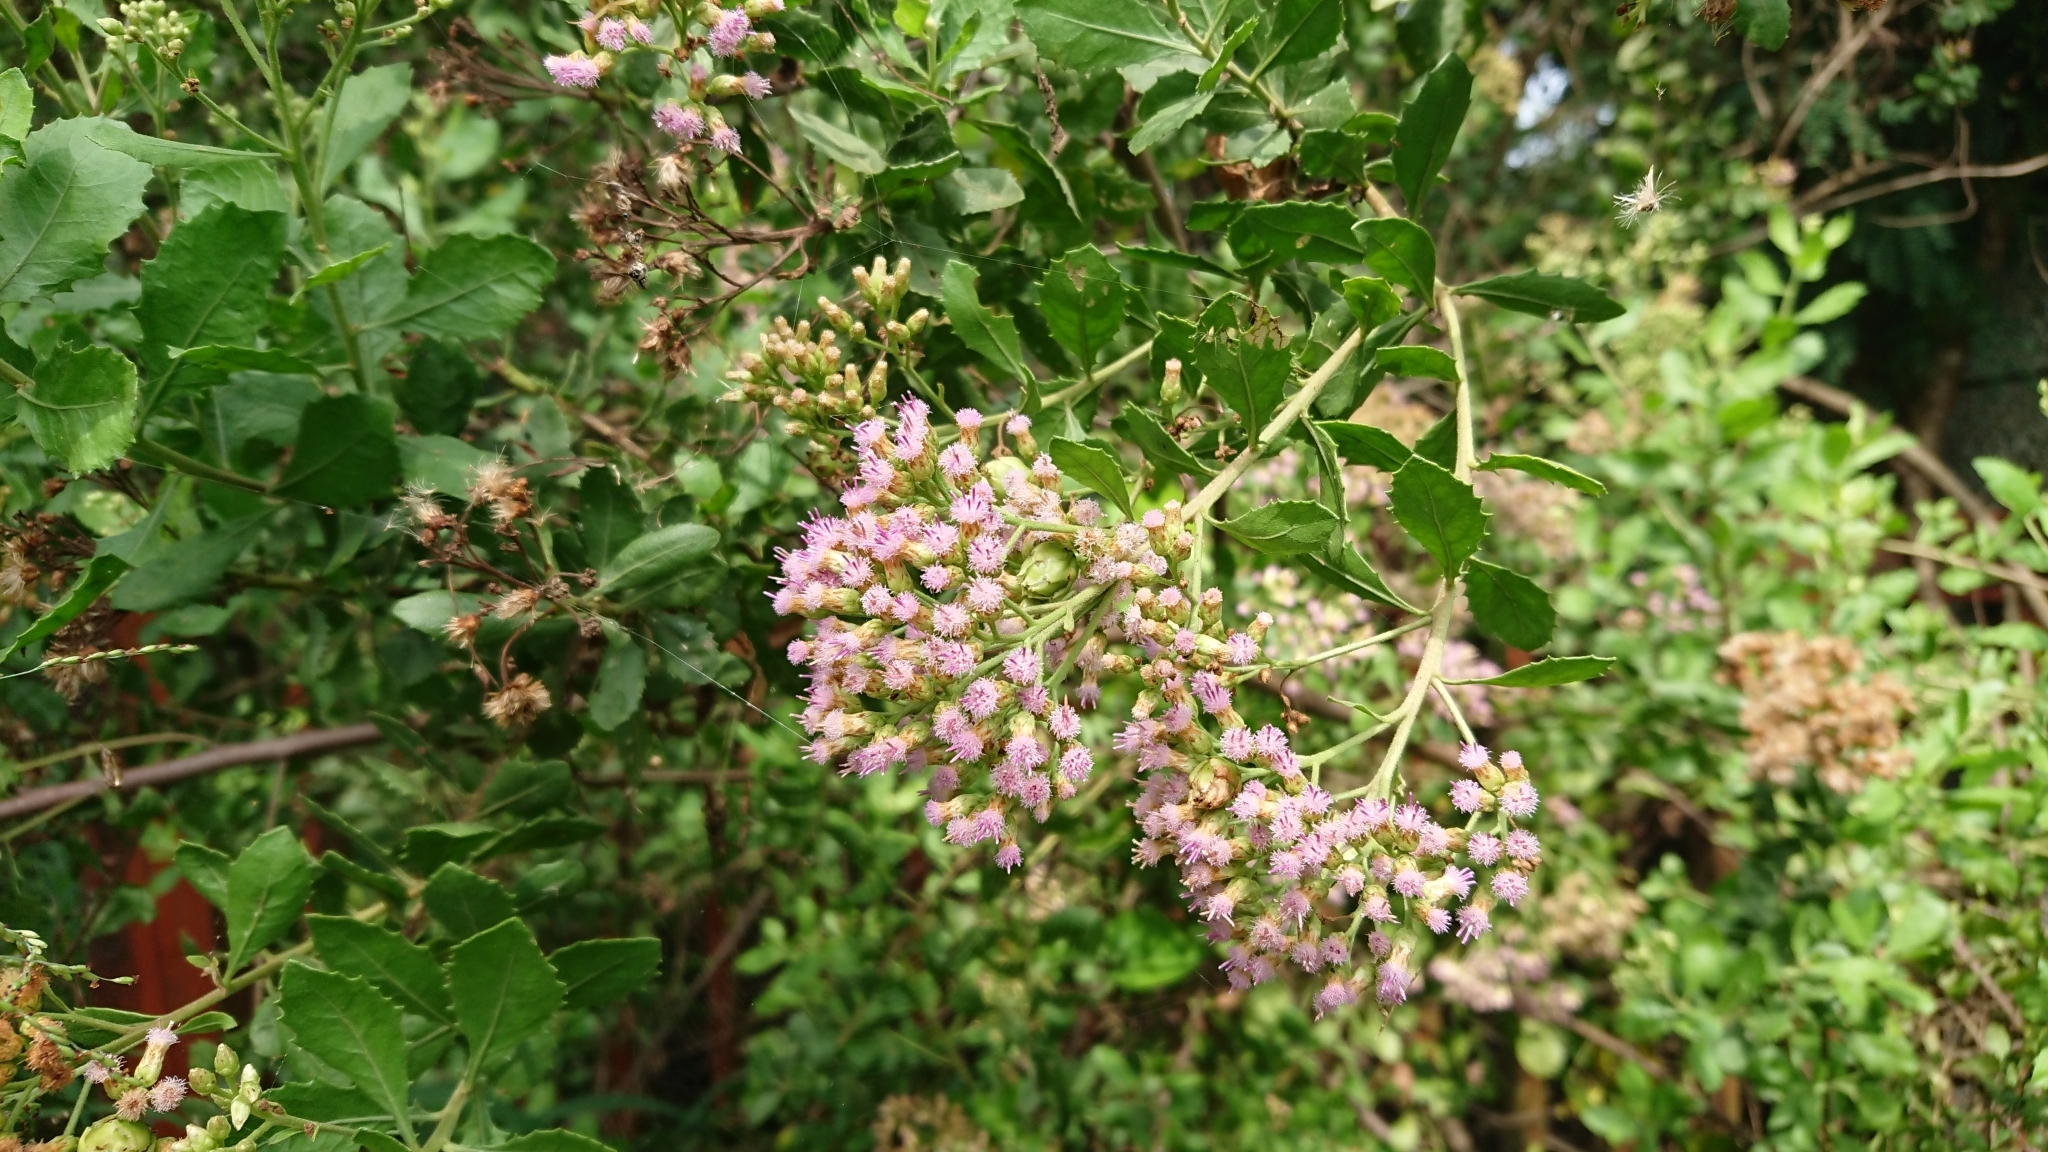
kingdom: Plantae
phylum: Tracheophyta
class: Magnoliopsida
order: Asterales
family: Asteraceae
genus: Pluchea
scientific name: Pluchea indica
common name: Indian fleabane
